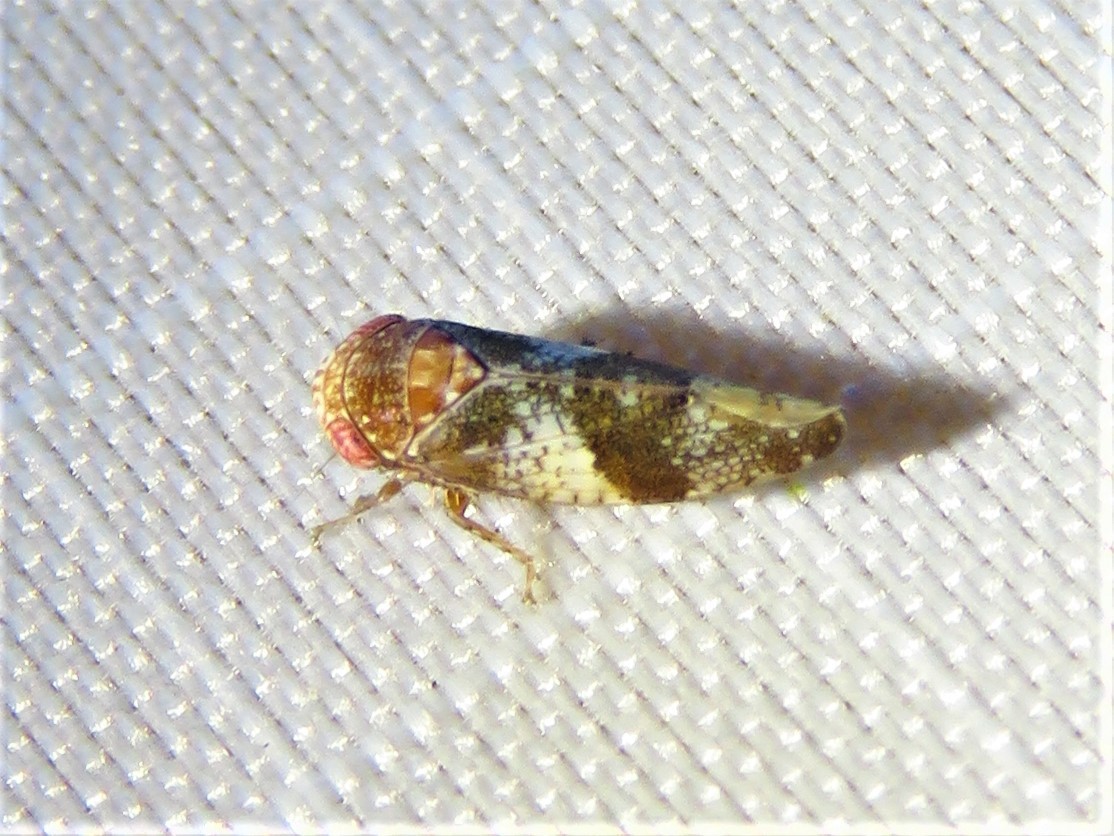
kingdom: Animalia
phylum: Arthropoda
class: Insecta
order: Hemiptera
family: Cicadellidae
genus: Norvellina
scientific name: Norvellina helenae
